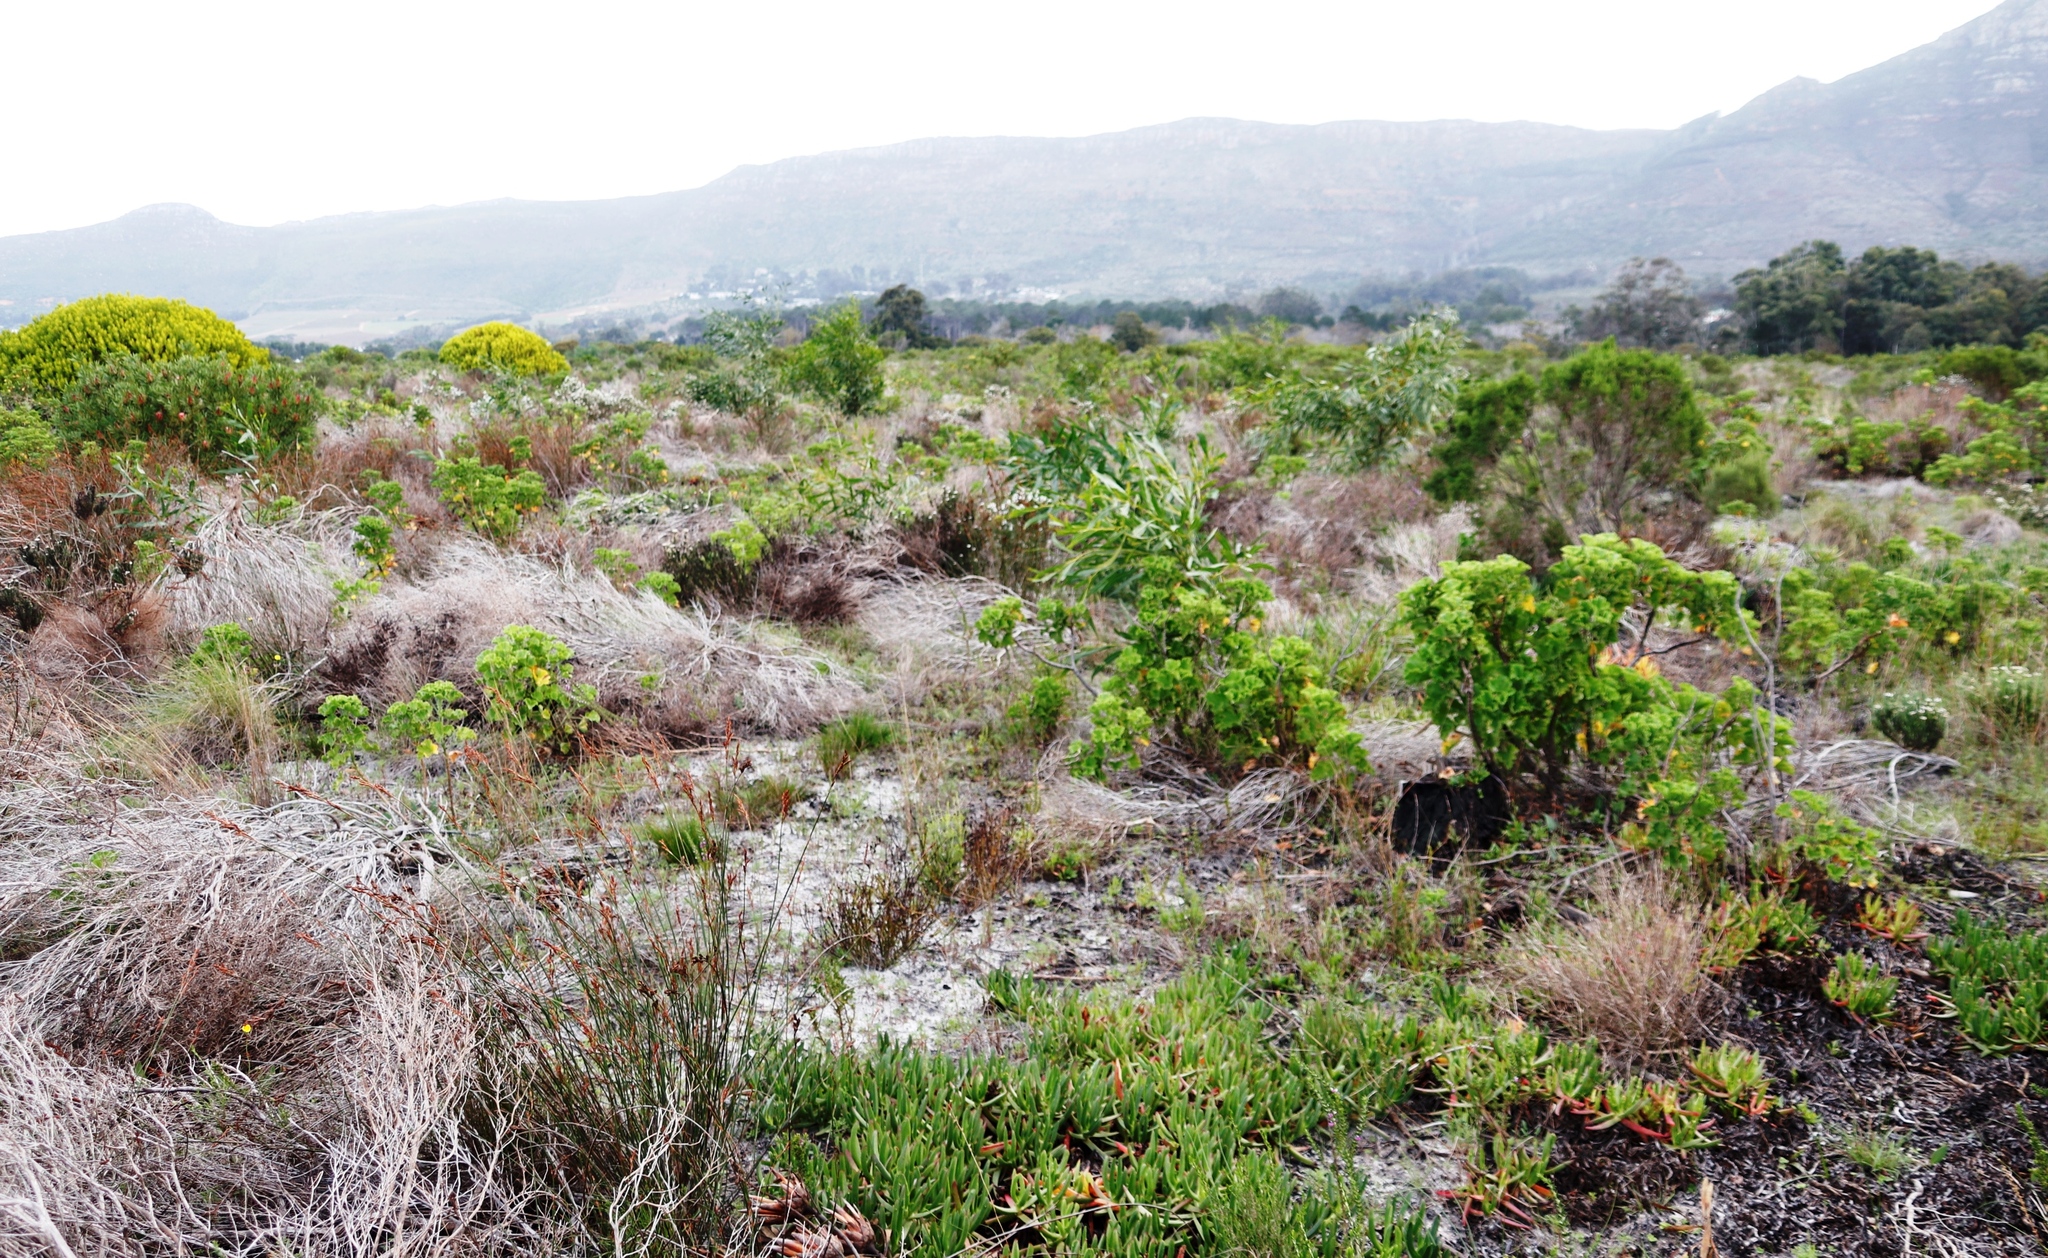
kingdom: Plantae
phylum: Tracheophyta
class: Magnoliopsida
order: Fabales
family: Fabaceae
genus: Acacia
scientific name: Acacia saligna
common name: Orange wattle
